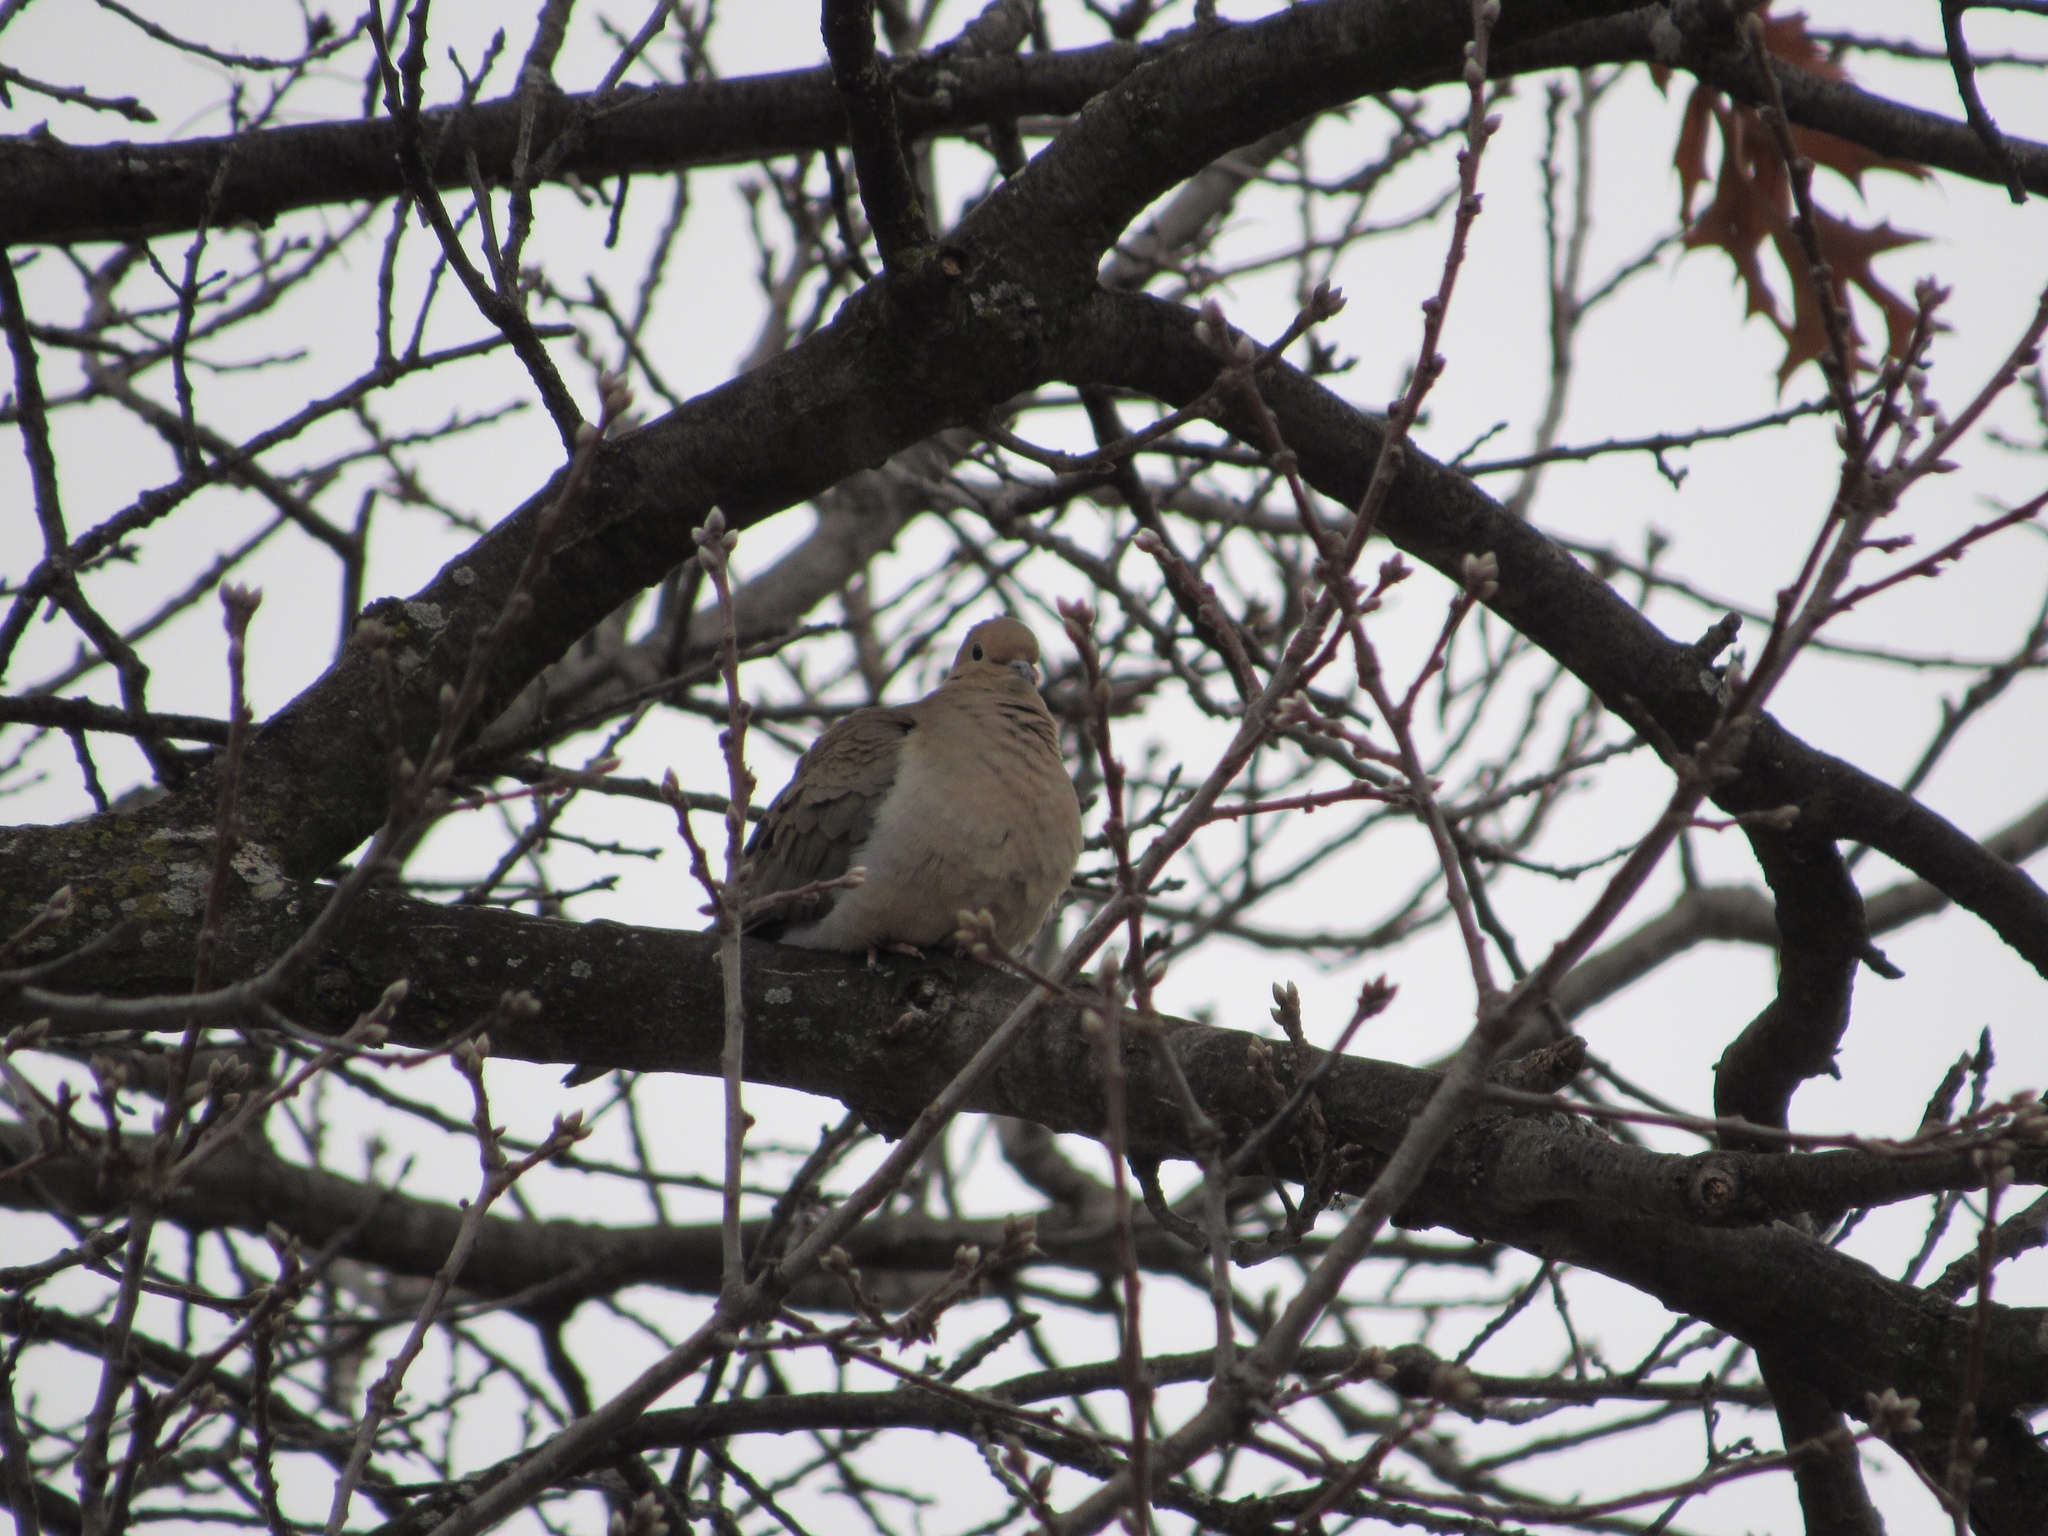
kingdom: Animalia
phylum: Chordata
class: Aves
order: Columbiformes
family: Columbidae
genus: Zenaida
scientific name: Zenaida macroura
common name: Mourning dove
